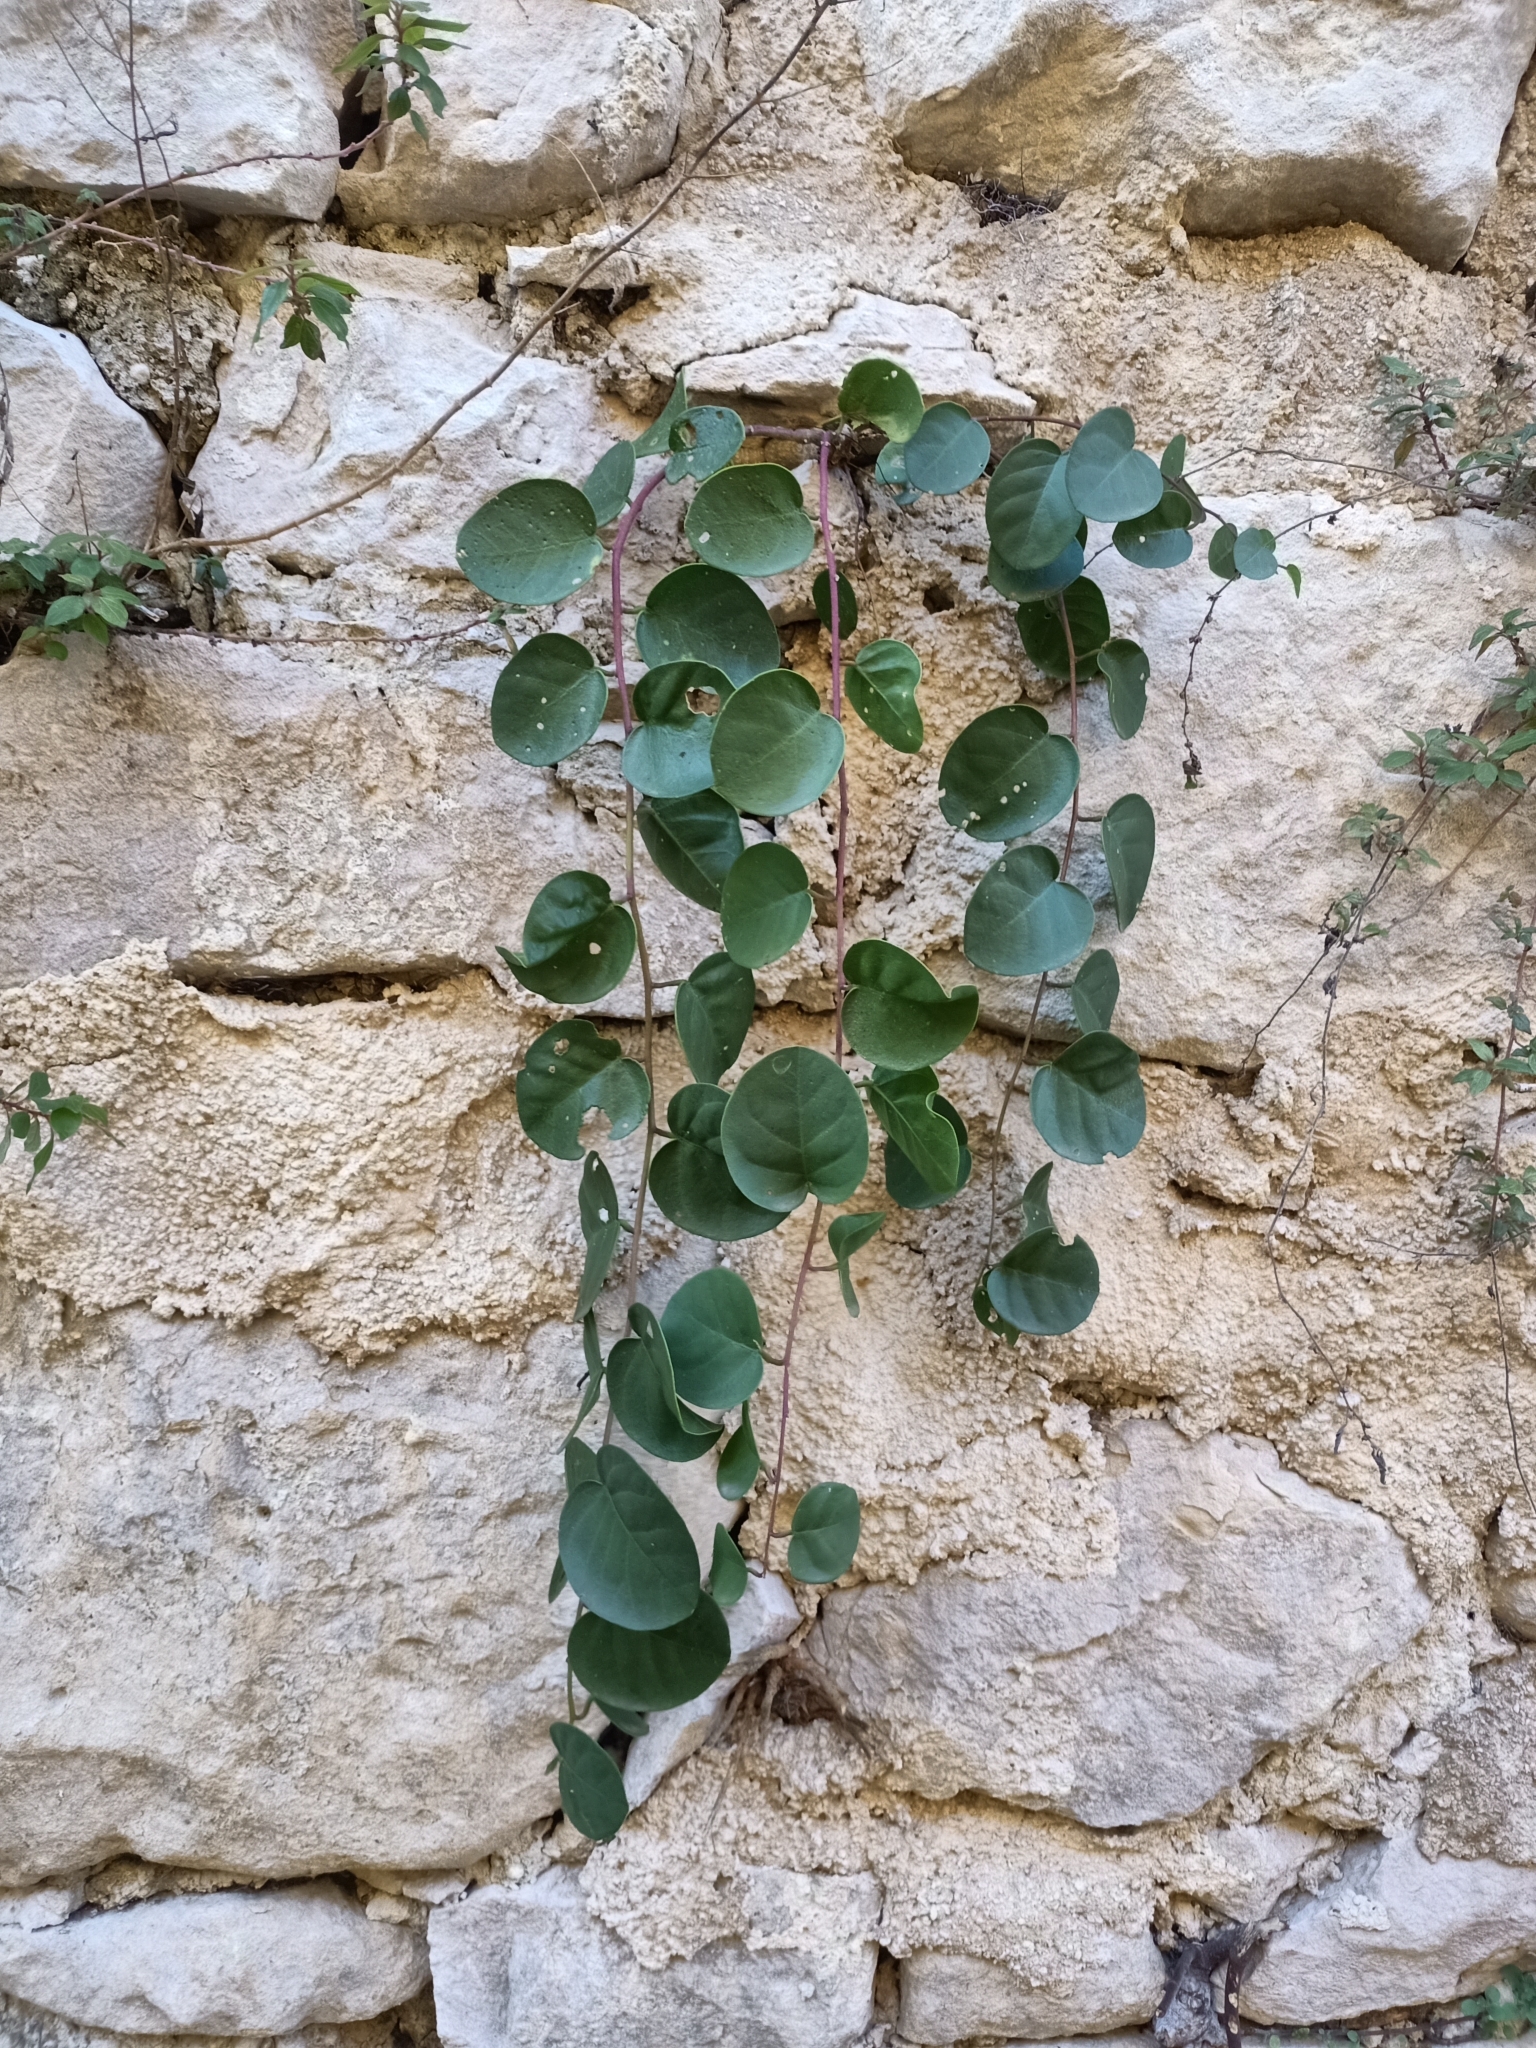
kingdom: Plantae
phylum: Tracheophyta
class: Magnoliopsida
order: Brassicales
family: Capparaceae
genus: Capparis
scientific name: Capparis orientalis
